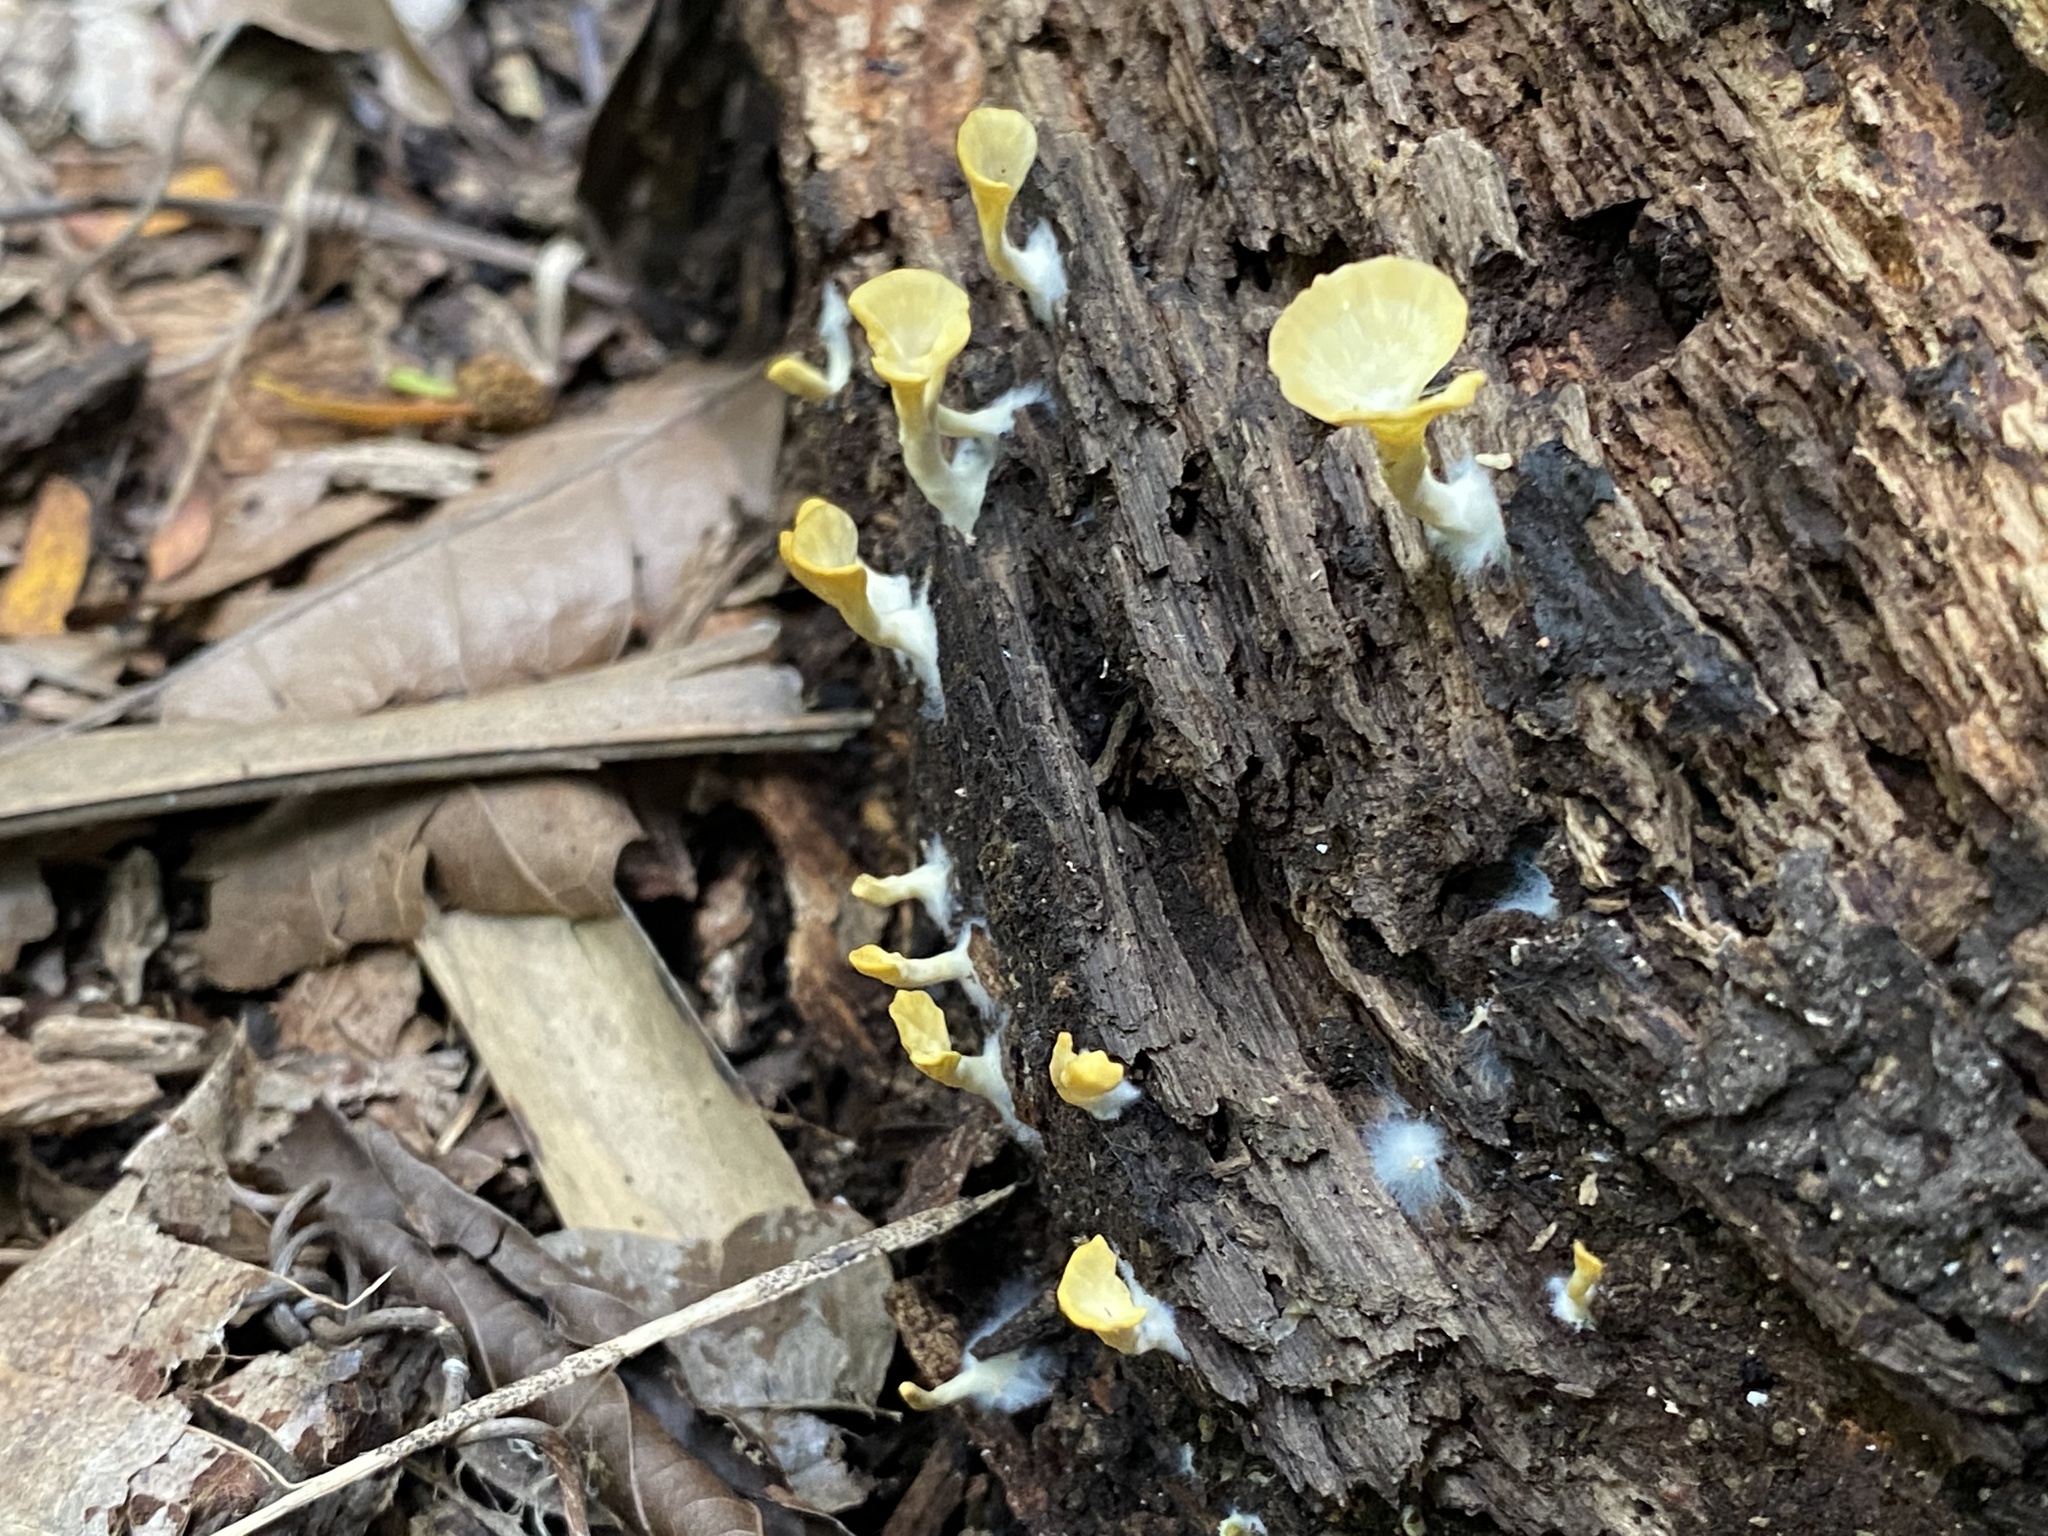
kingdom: Fungi
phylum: Basidiomycota
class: Agaricomycetes
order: Hymenochaetales
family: Rickenellaceae
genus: Cotylidia
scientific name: Cotylidia aurantiaca
